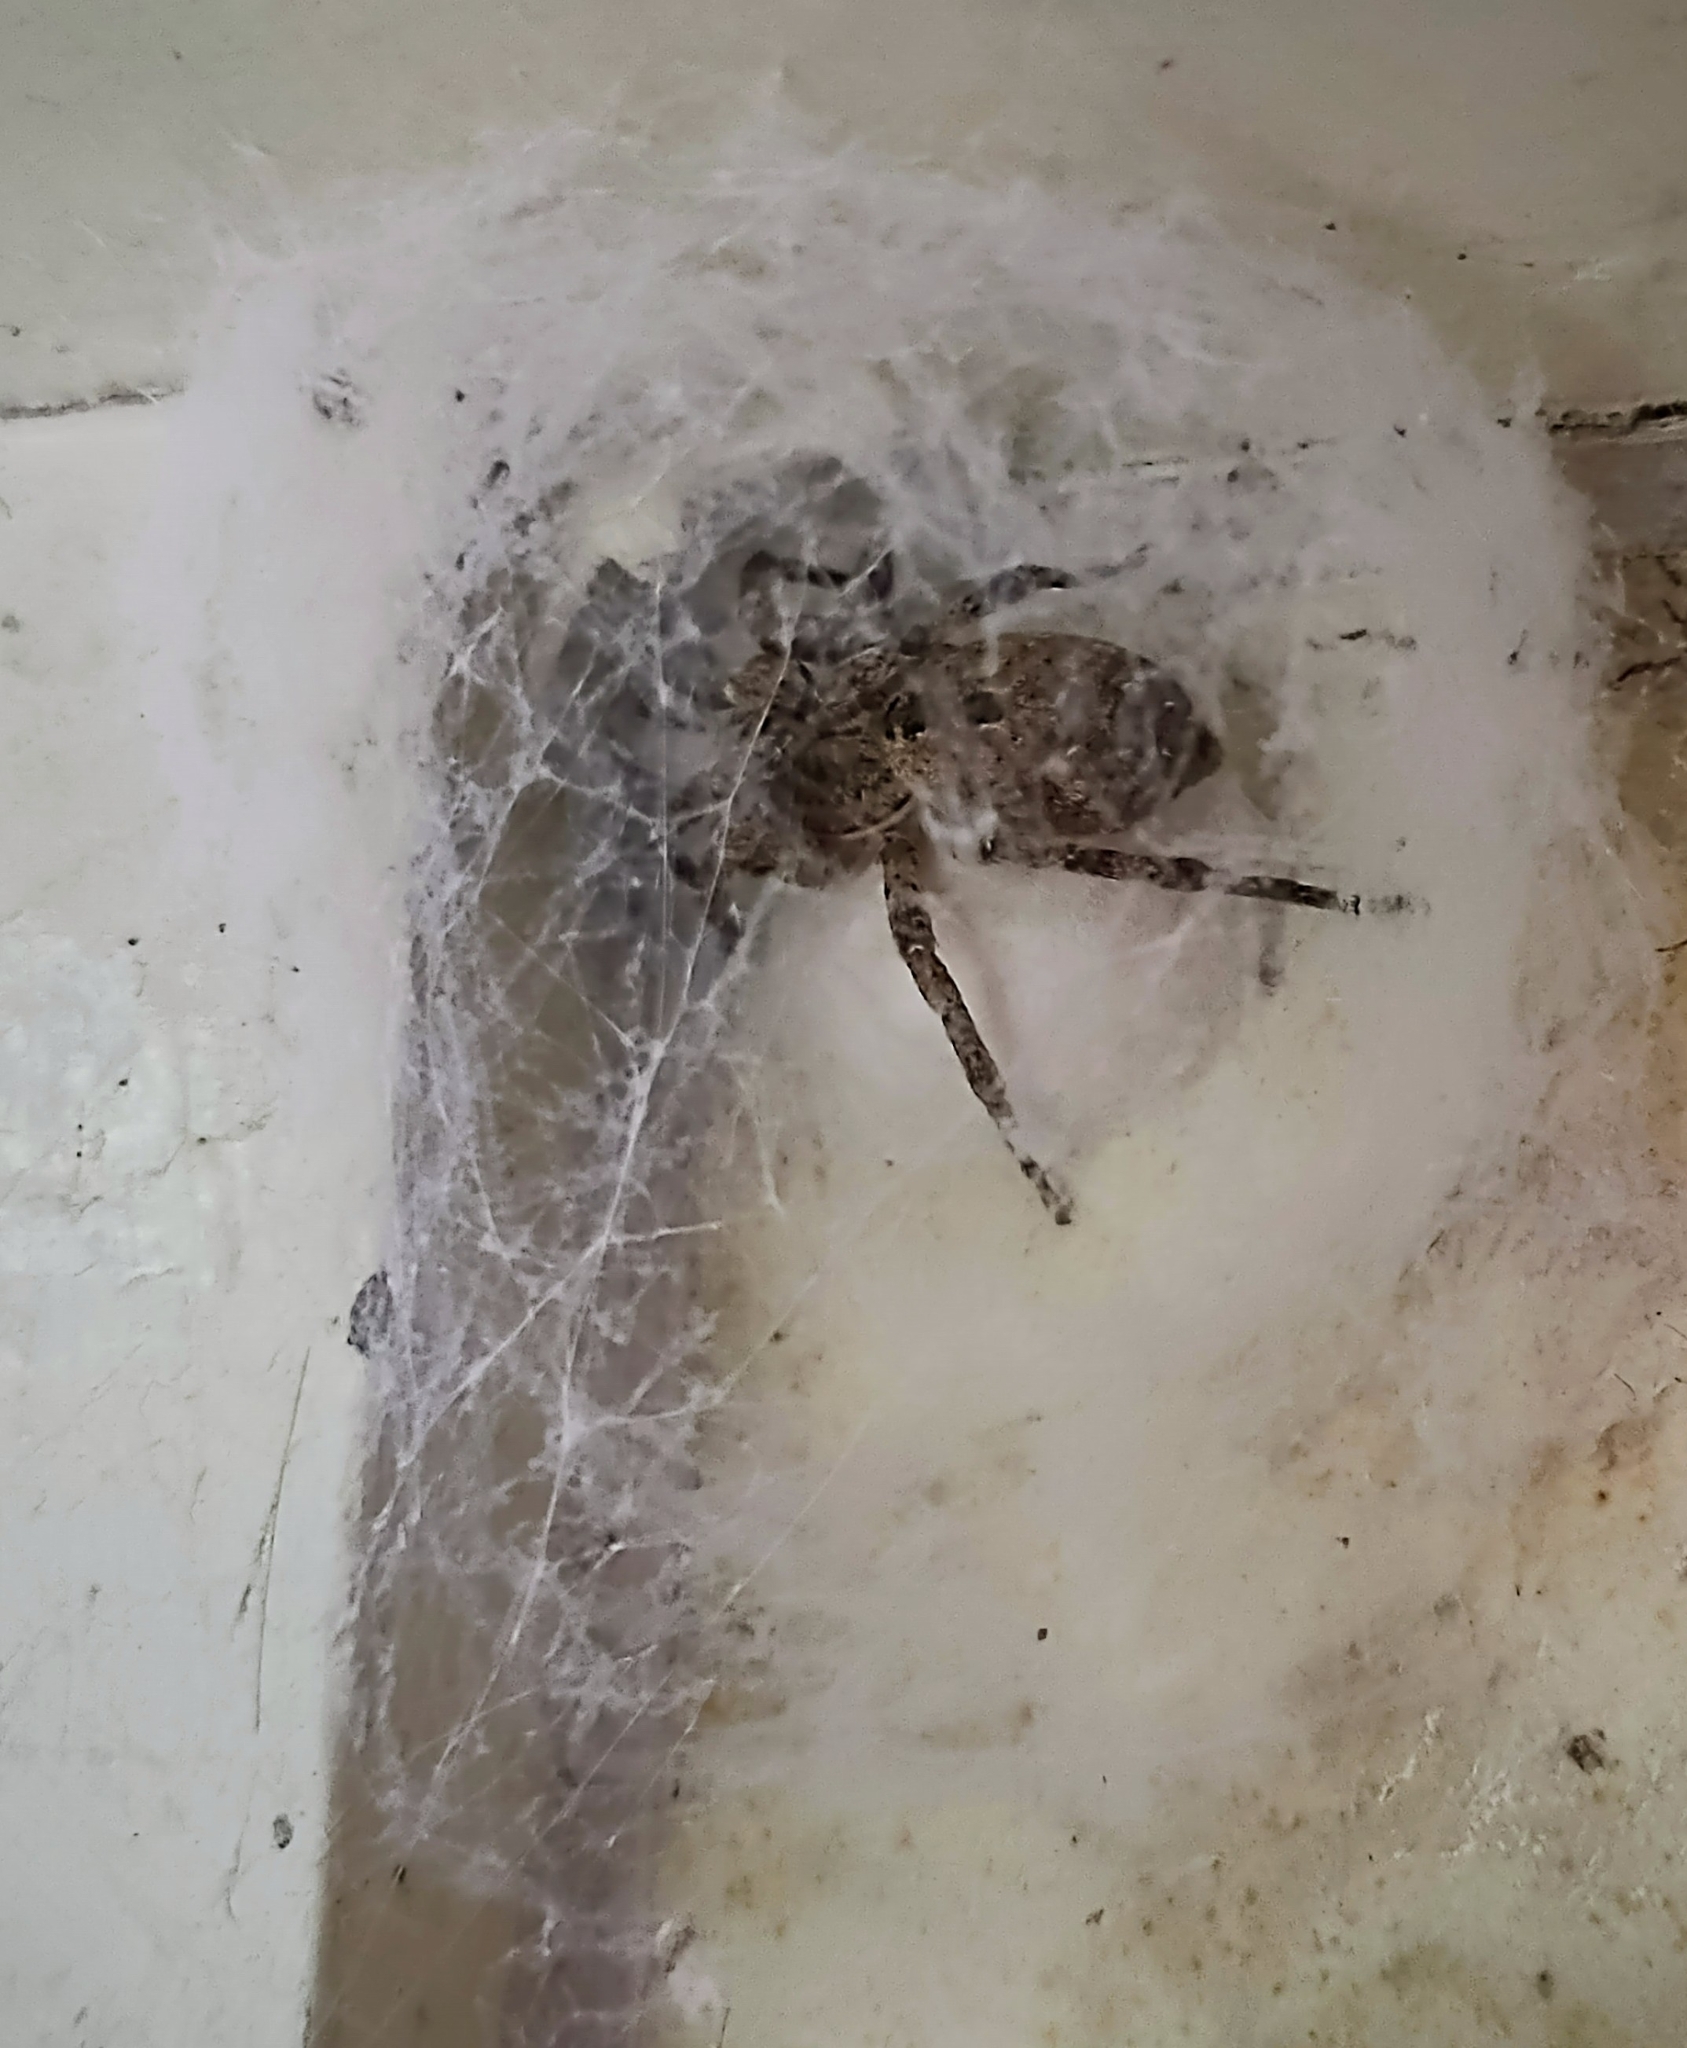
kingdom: Animalia
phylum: Arthropoda
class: Arachnida
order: Araneae
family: Zoropsidae
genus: Zoropsis
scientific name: Zoropsis spinimana
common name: Zoropsid spider
